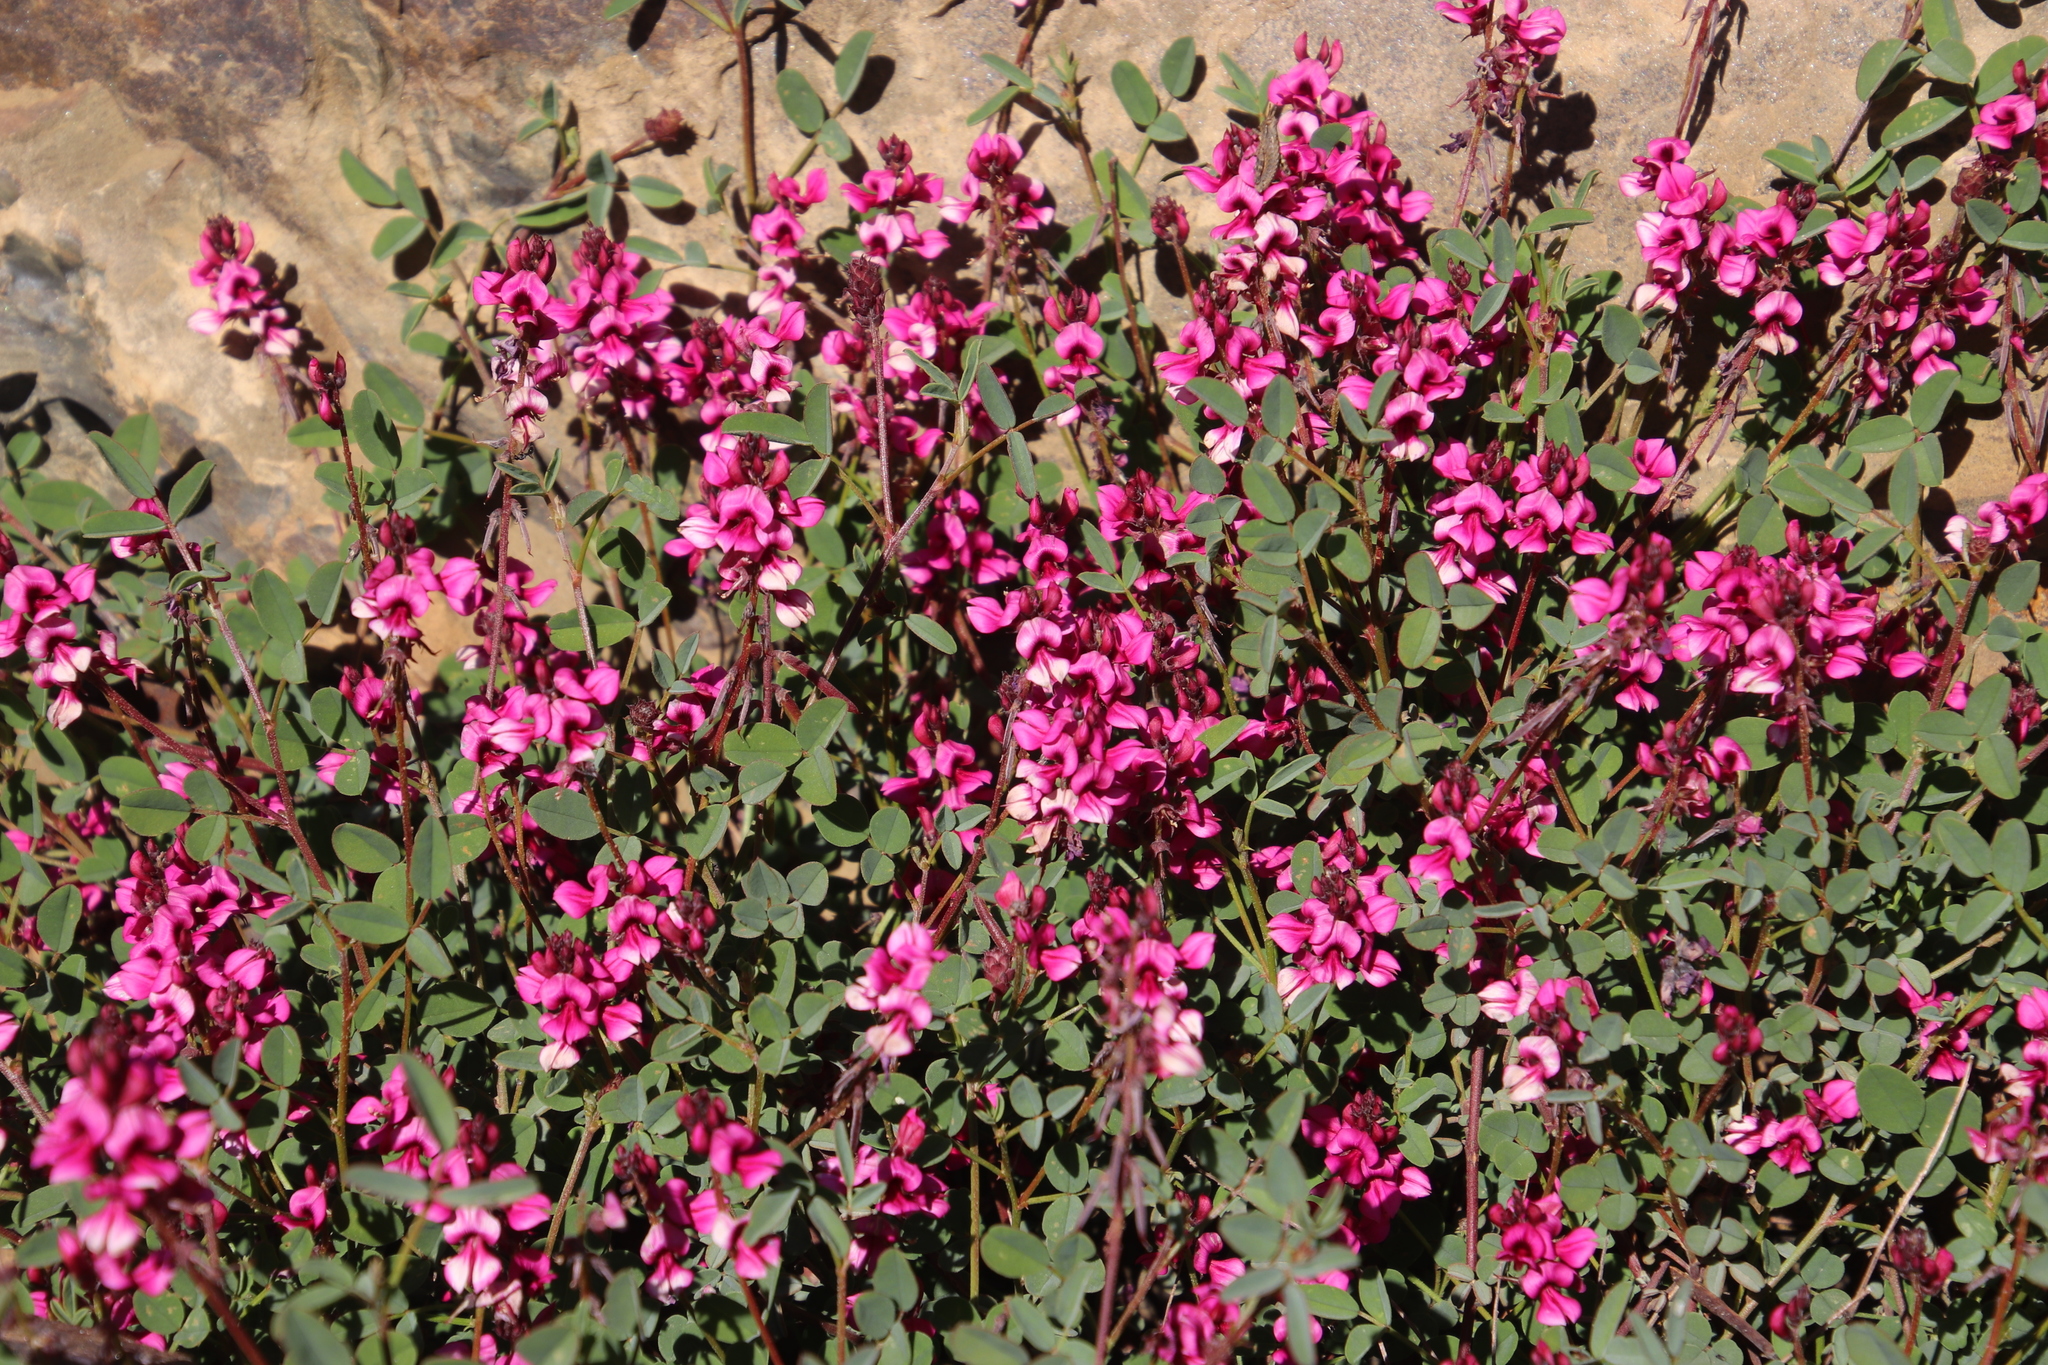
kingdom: Plantae
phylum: Tracheophyta
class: Magnoliopsida
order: Fabales
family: Fabaceae
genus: Indigofera
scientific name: Indigofera intermedia
